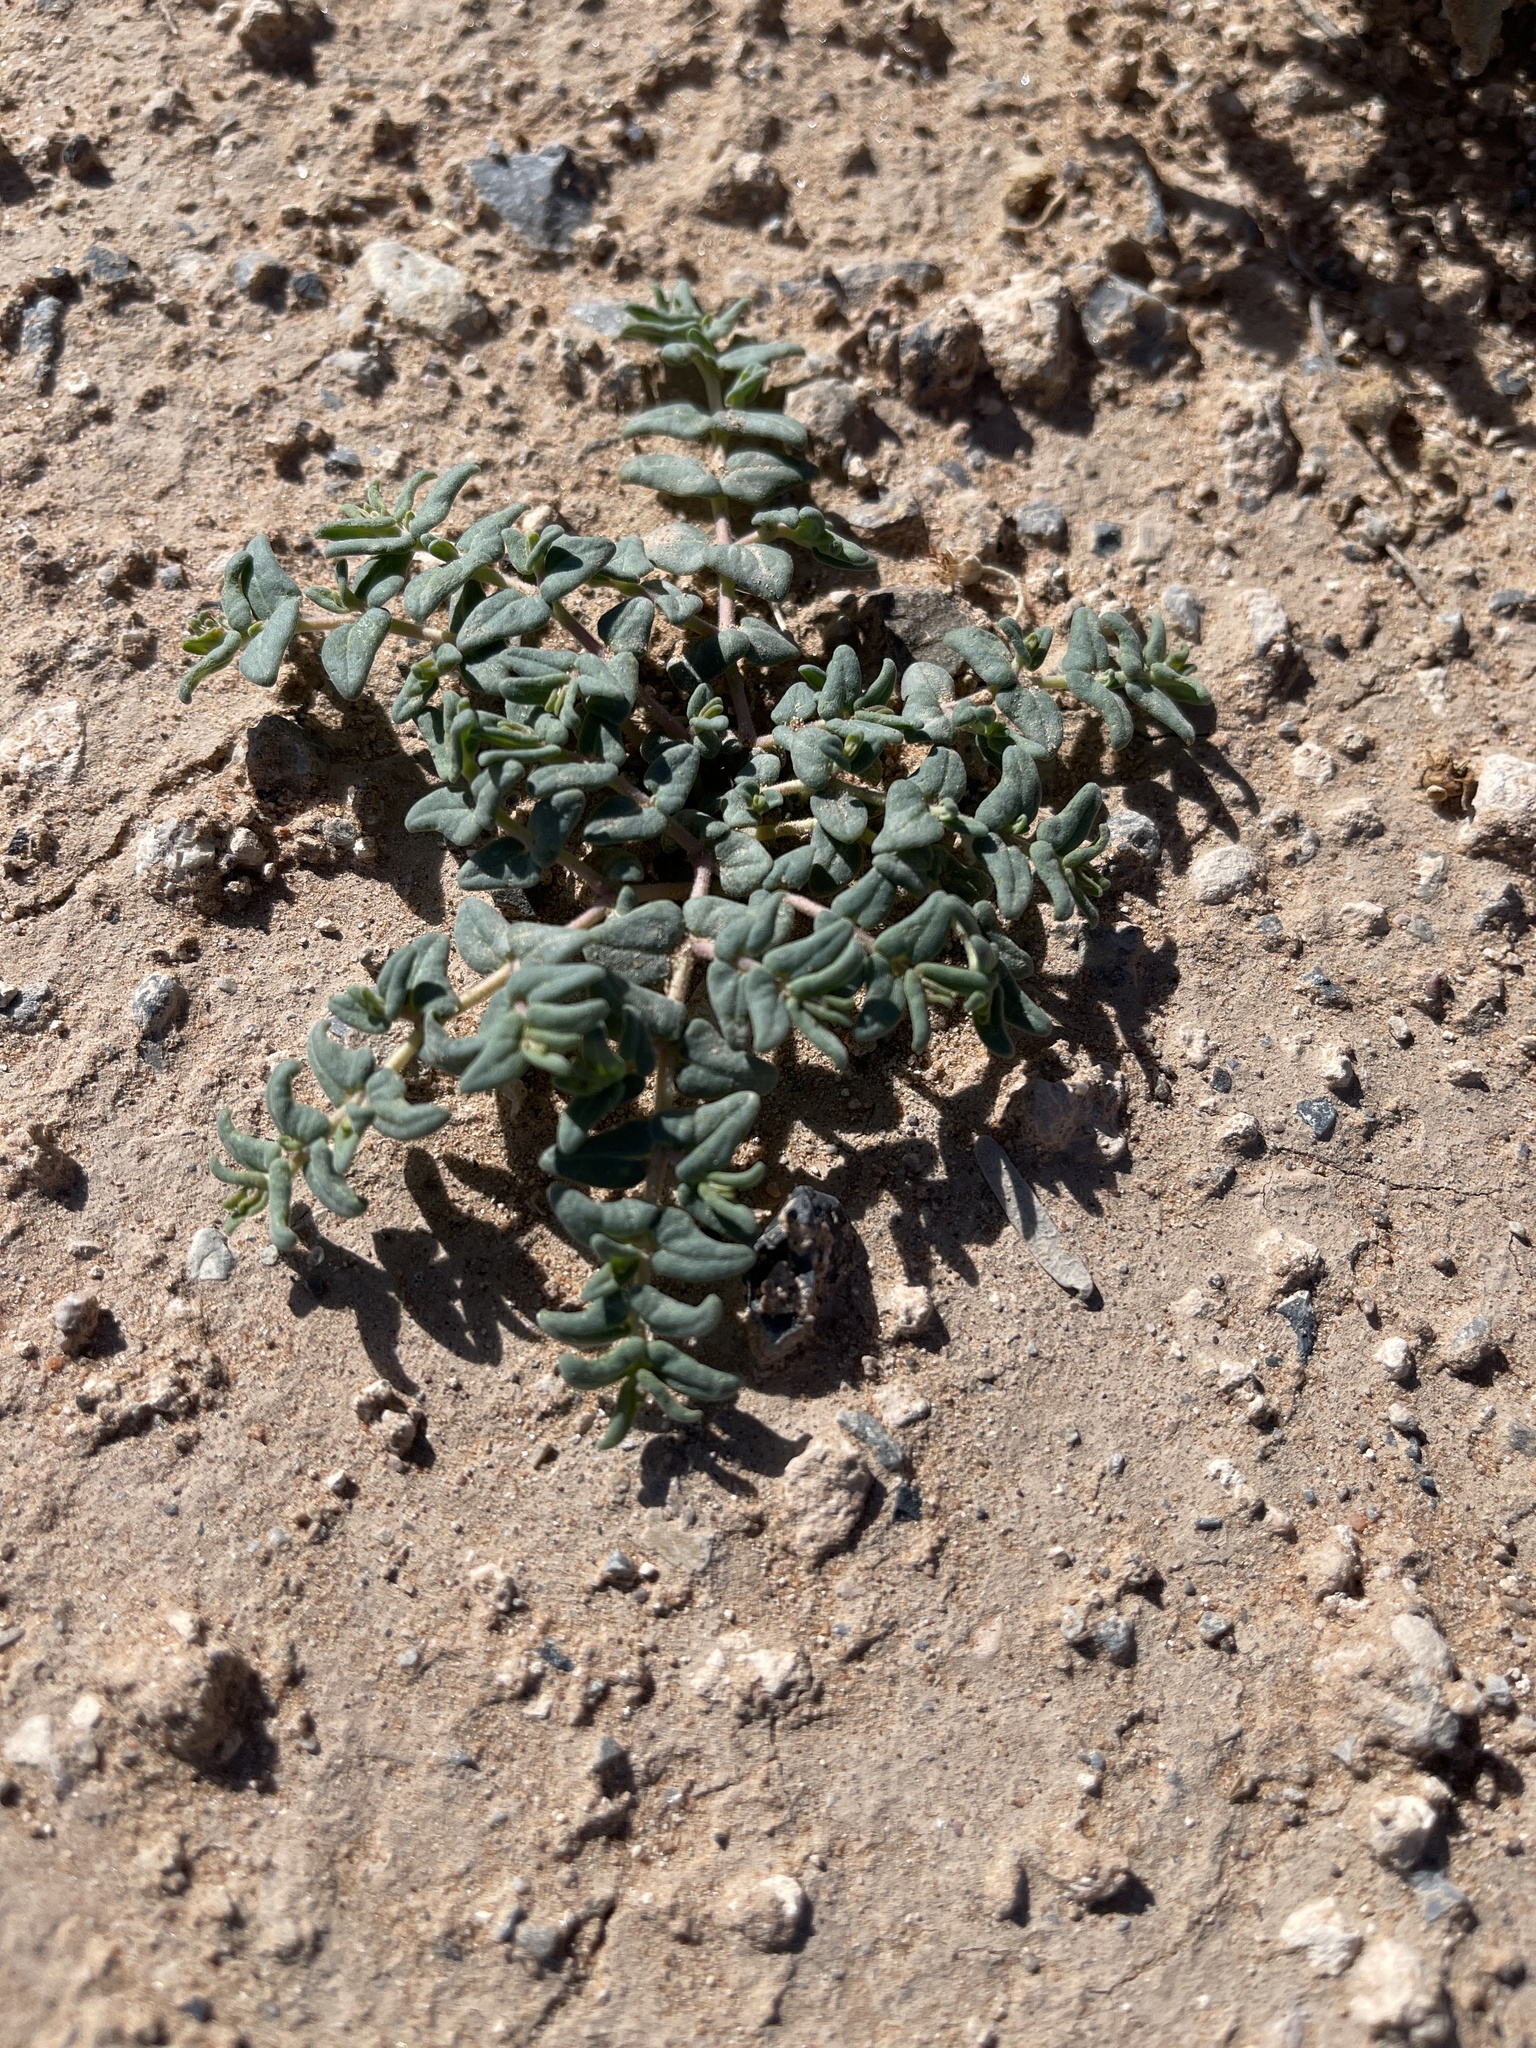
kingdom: Plantae
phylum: Tracheophyta
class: Magnoliopsida
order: Malpighiales
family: Euphorbiaceae
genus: Euphorbia
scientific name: Euphorbia lata
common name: Hoary euphorbia
